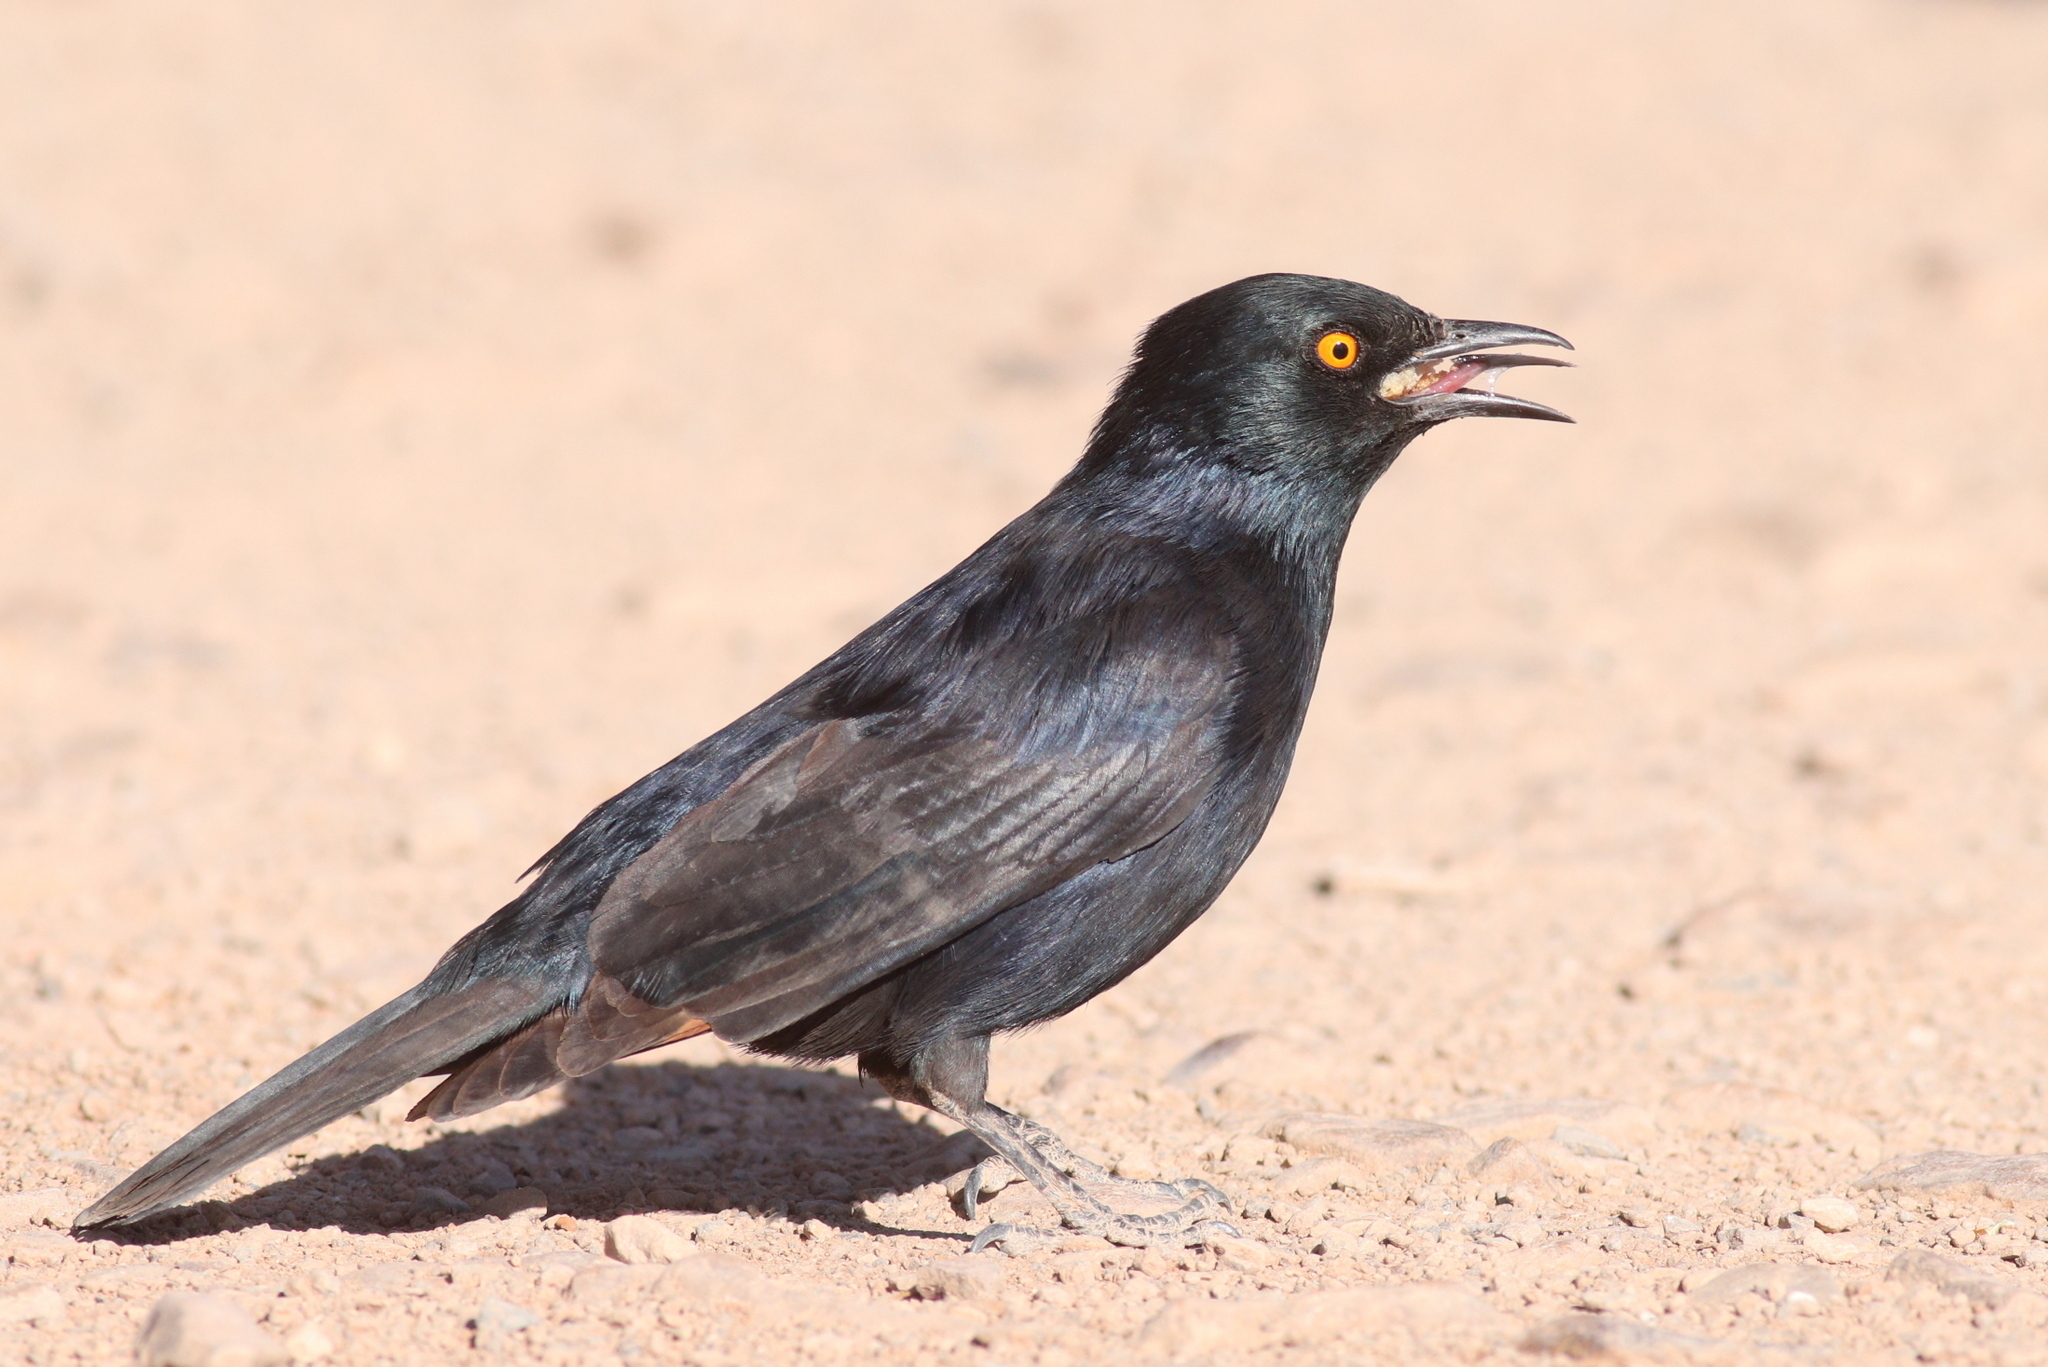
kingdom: Animalia
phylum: Chordata
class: Aves
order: Passeriformes
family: Sturnidae
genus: Onychognathus
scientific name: Onychognathus nabouroup
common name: Pale-winged starling
